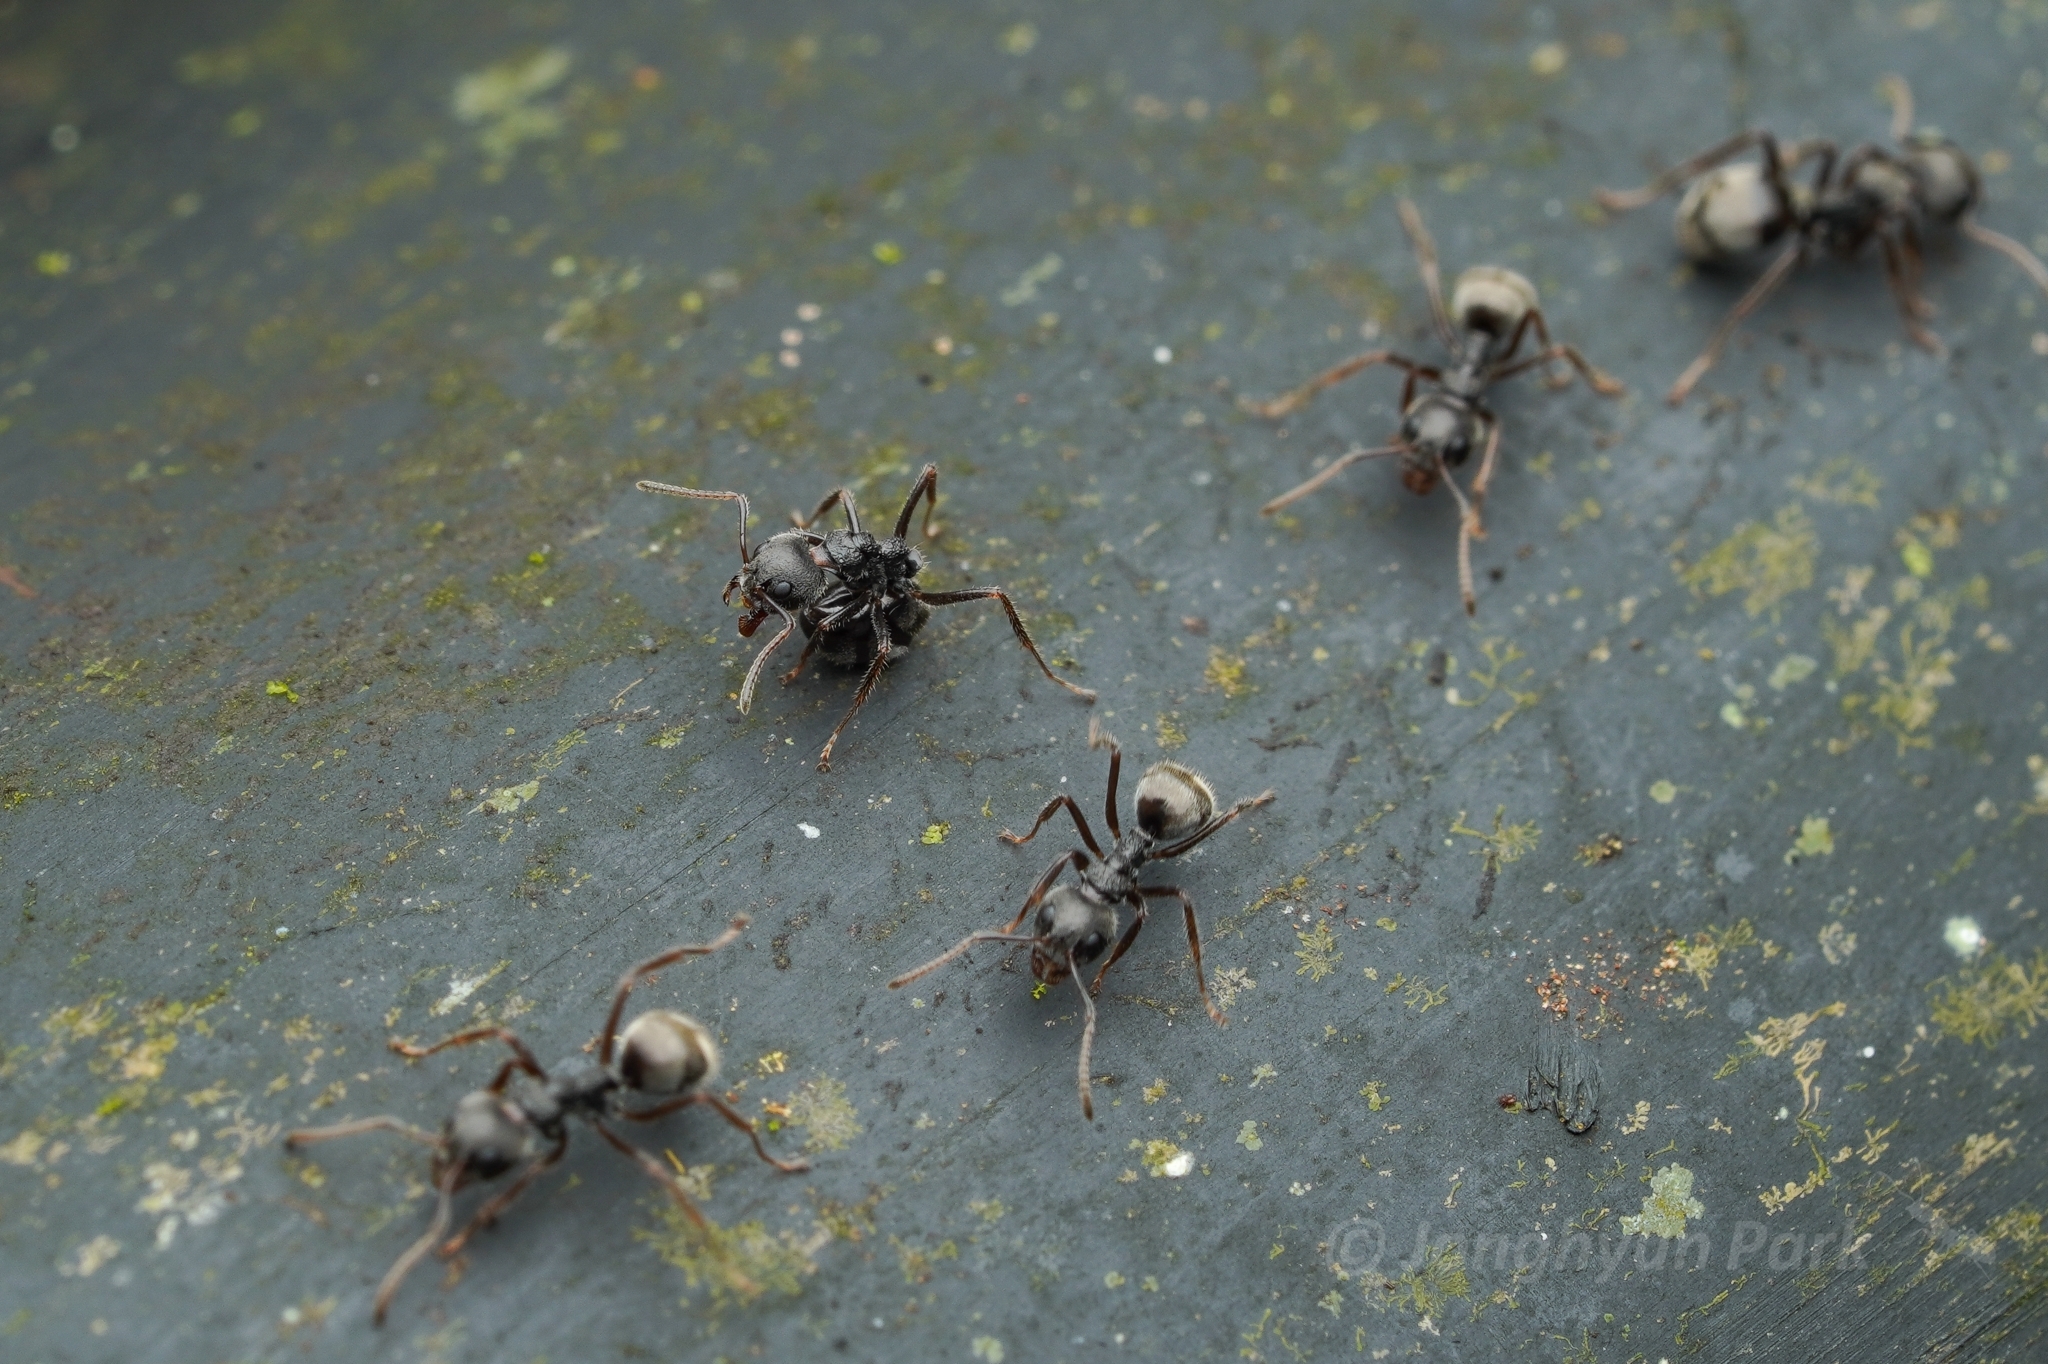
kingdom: Animalia
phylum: Arthropoda
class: Insecta
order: Hymenoptera
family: Formicidae
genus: Dolichoderus
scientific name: Dolichoderus thoracicus
